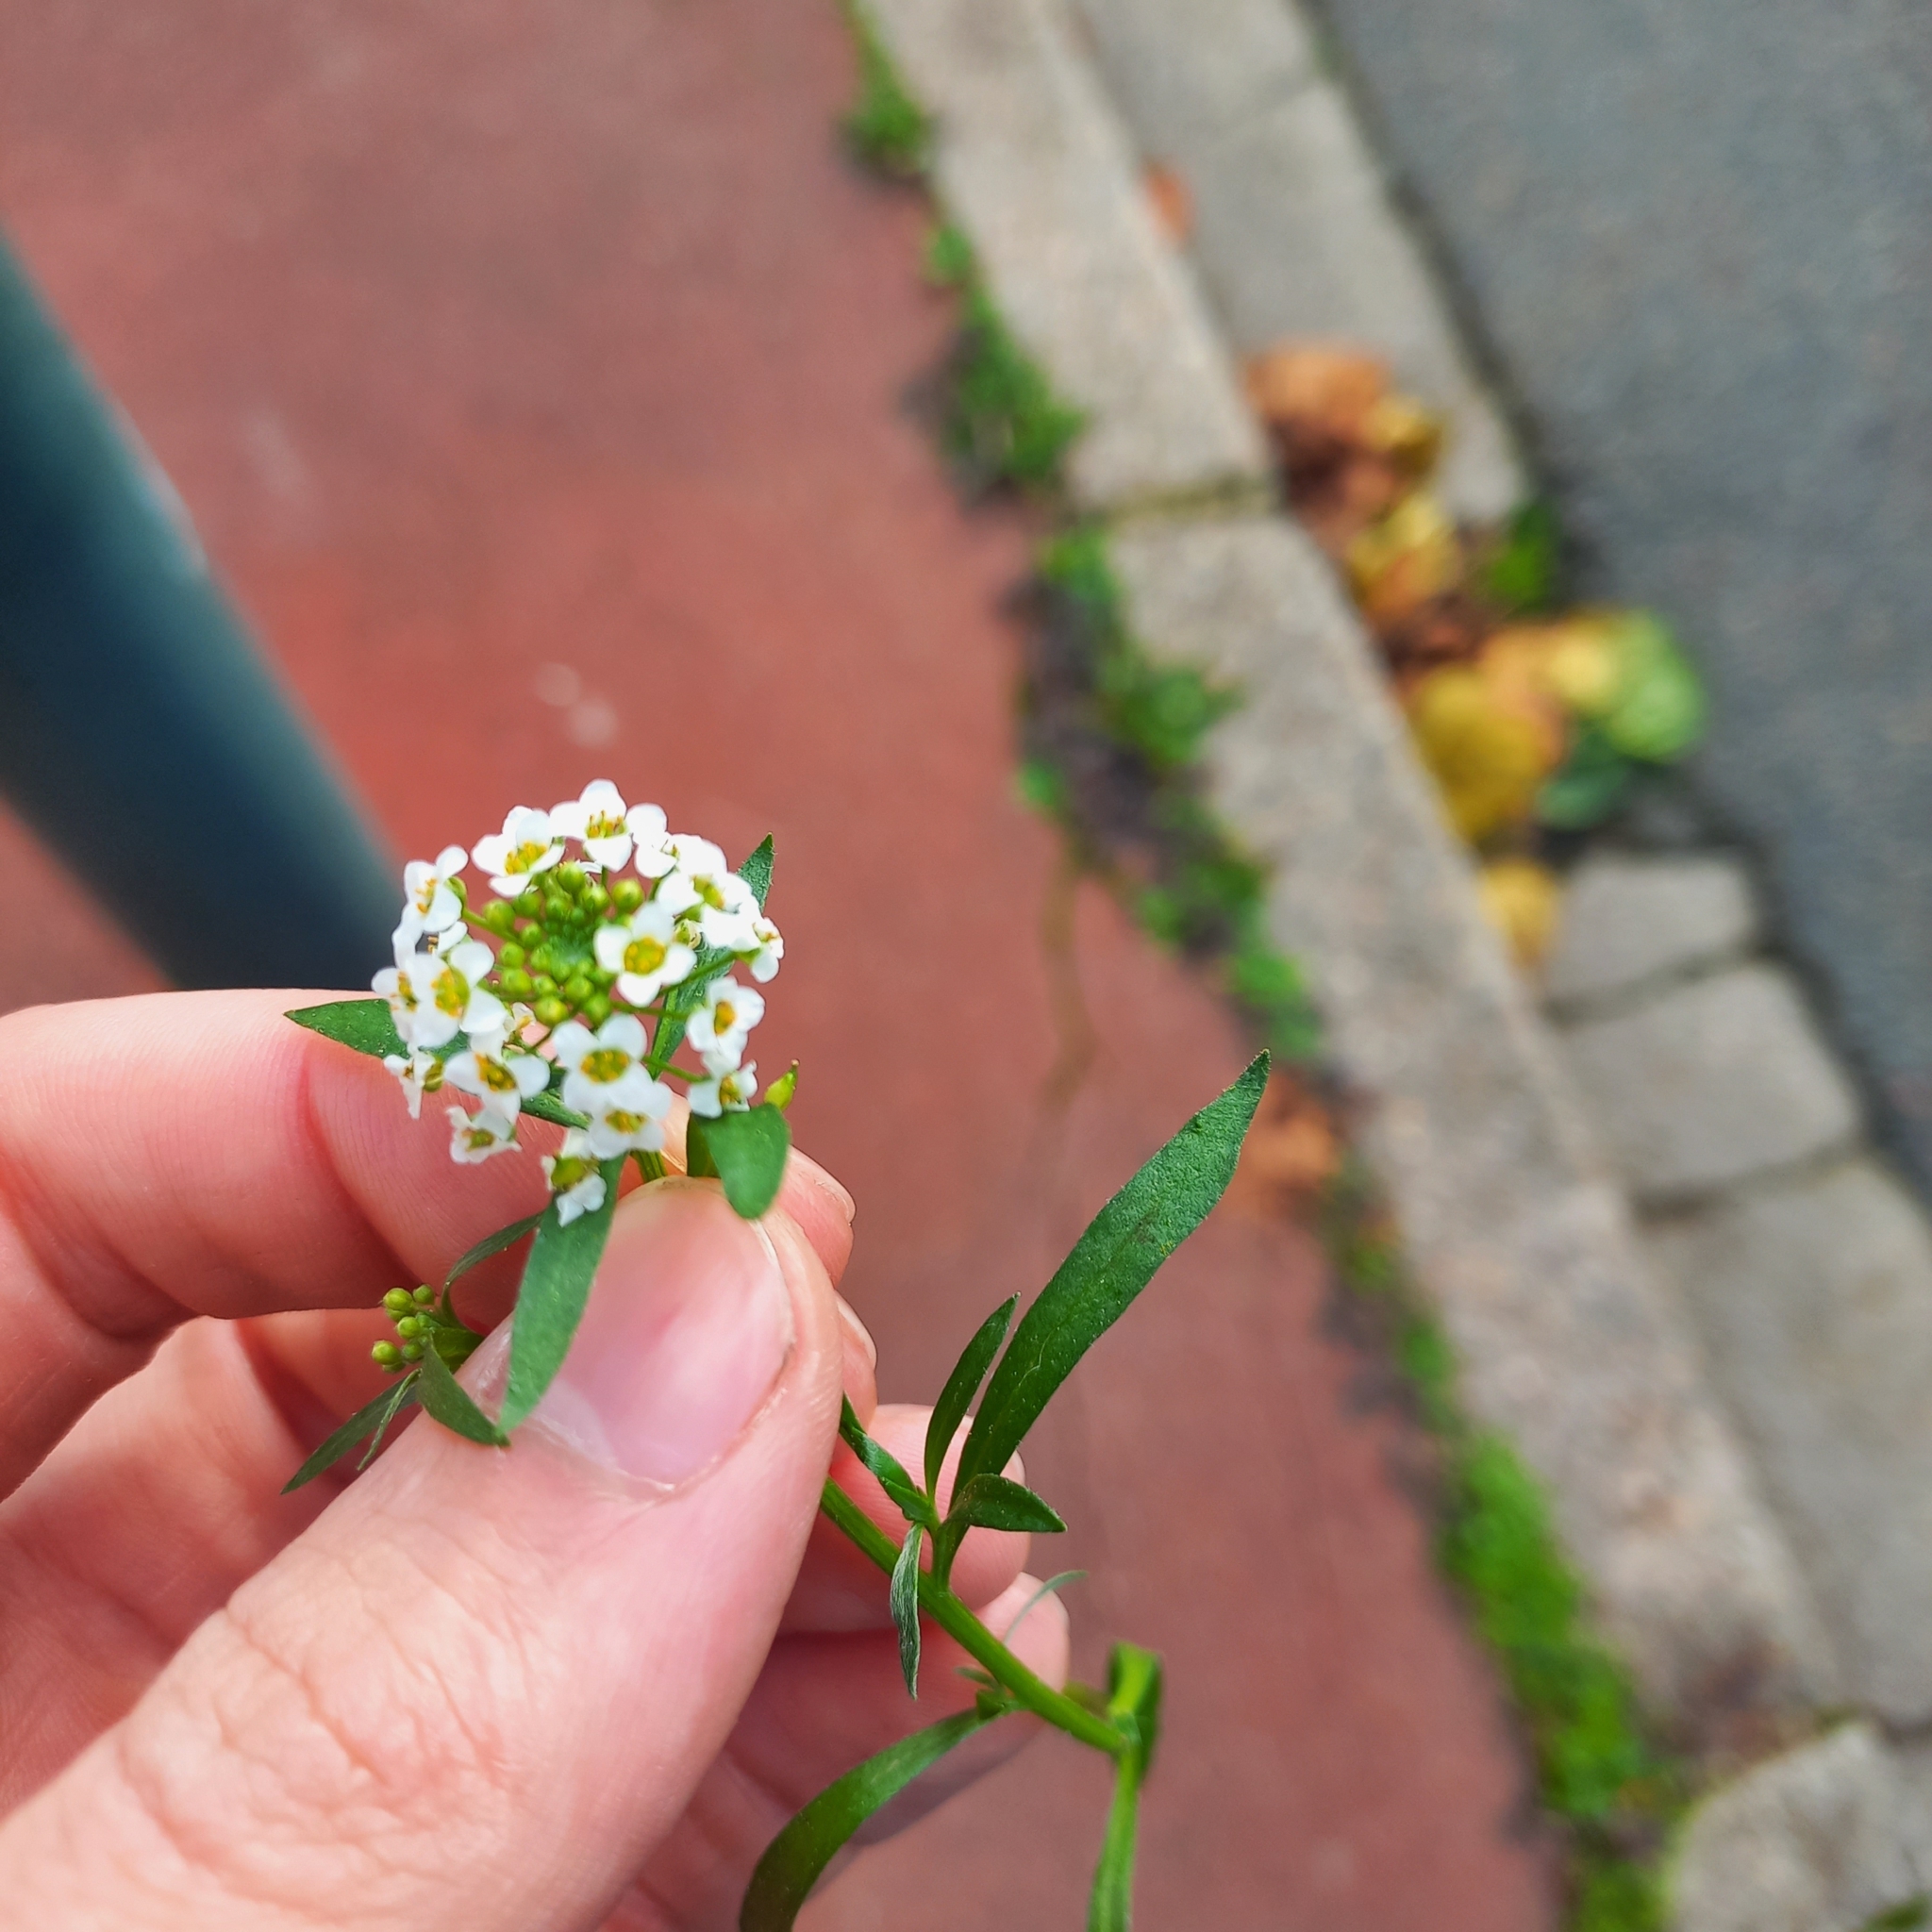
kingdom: Plantae
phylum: Tracheophyta
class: Magnoliopsida
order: Brassicales
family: Brassicaceae
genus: Lobularia
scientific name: Lobularia maritima
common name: Sweet alison
